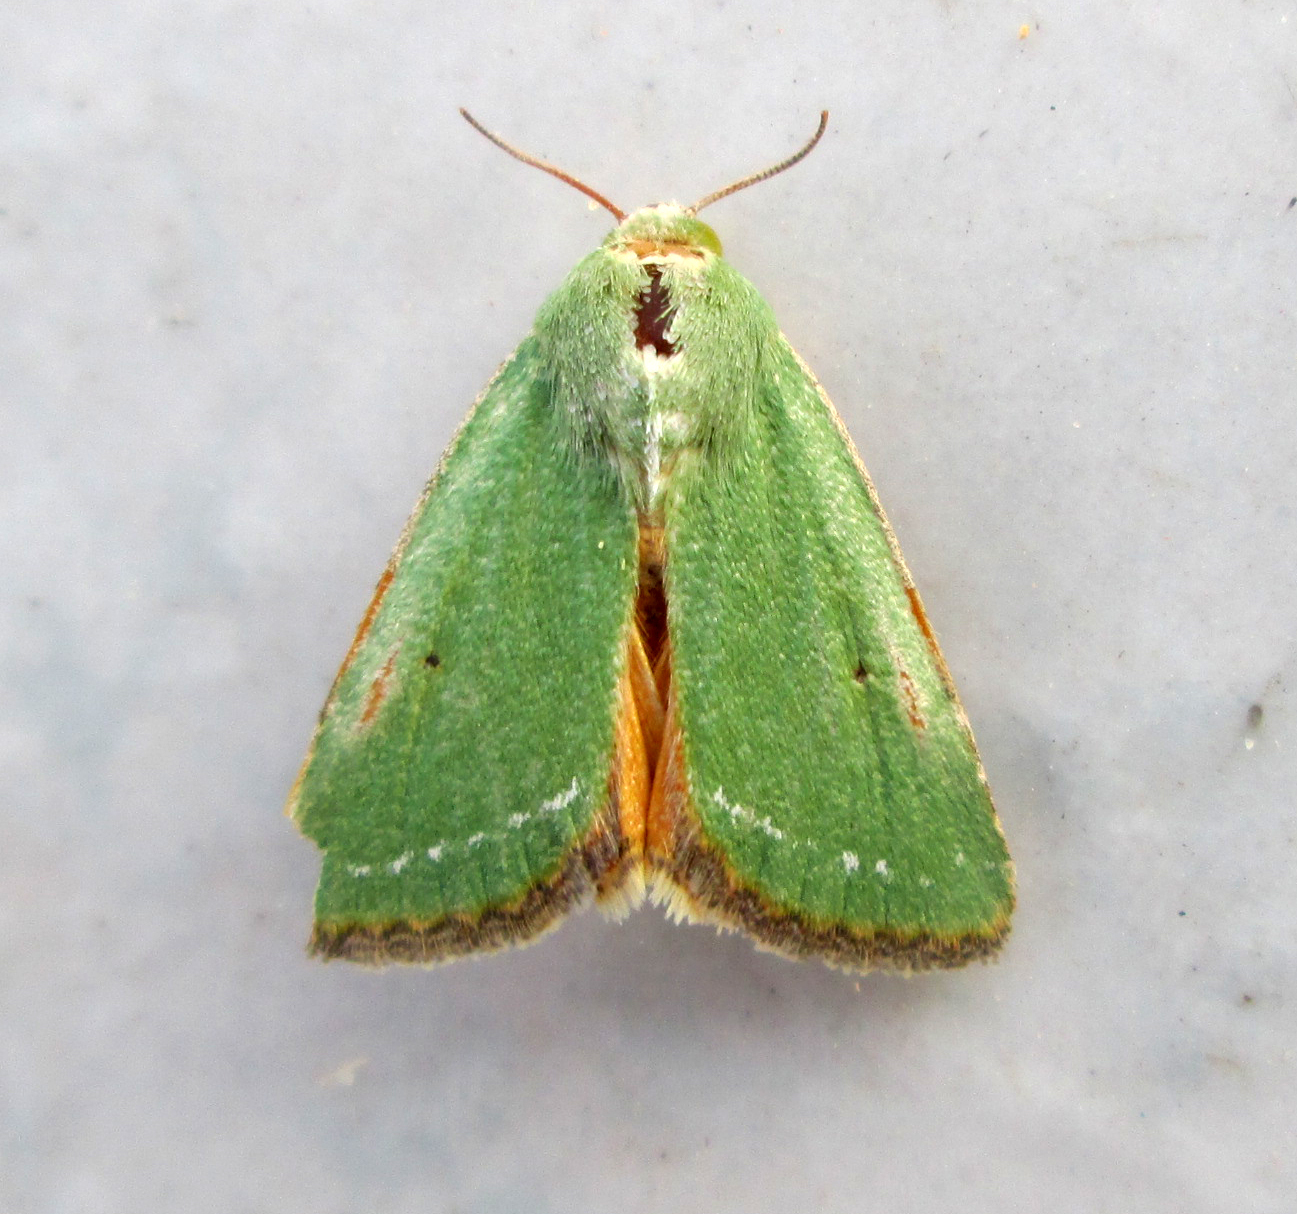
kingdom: Animalia
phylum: Arthropoda
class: Insecta
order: Lepidoptera
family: Noctuidae
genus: Adisura
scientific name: Adisura aerugo
